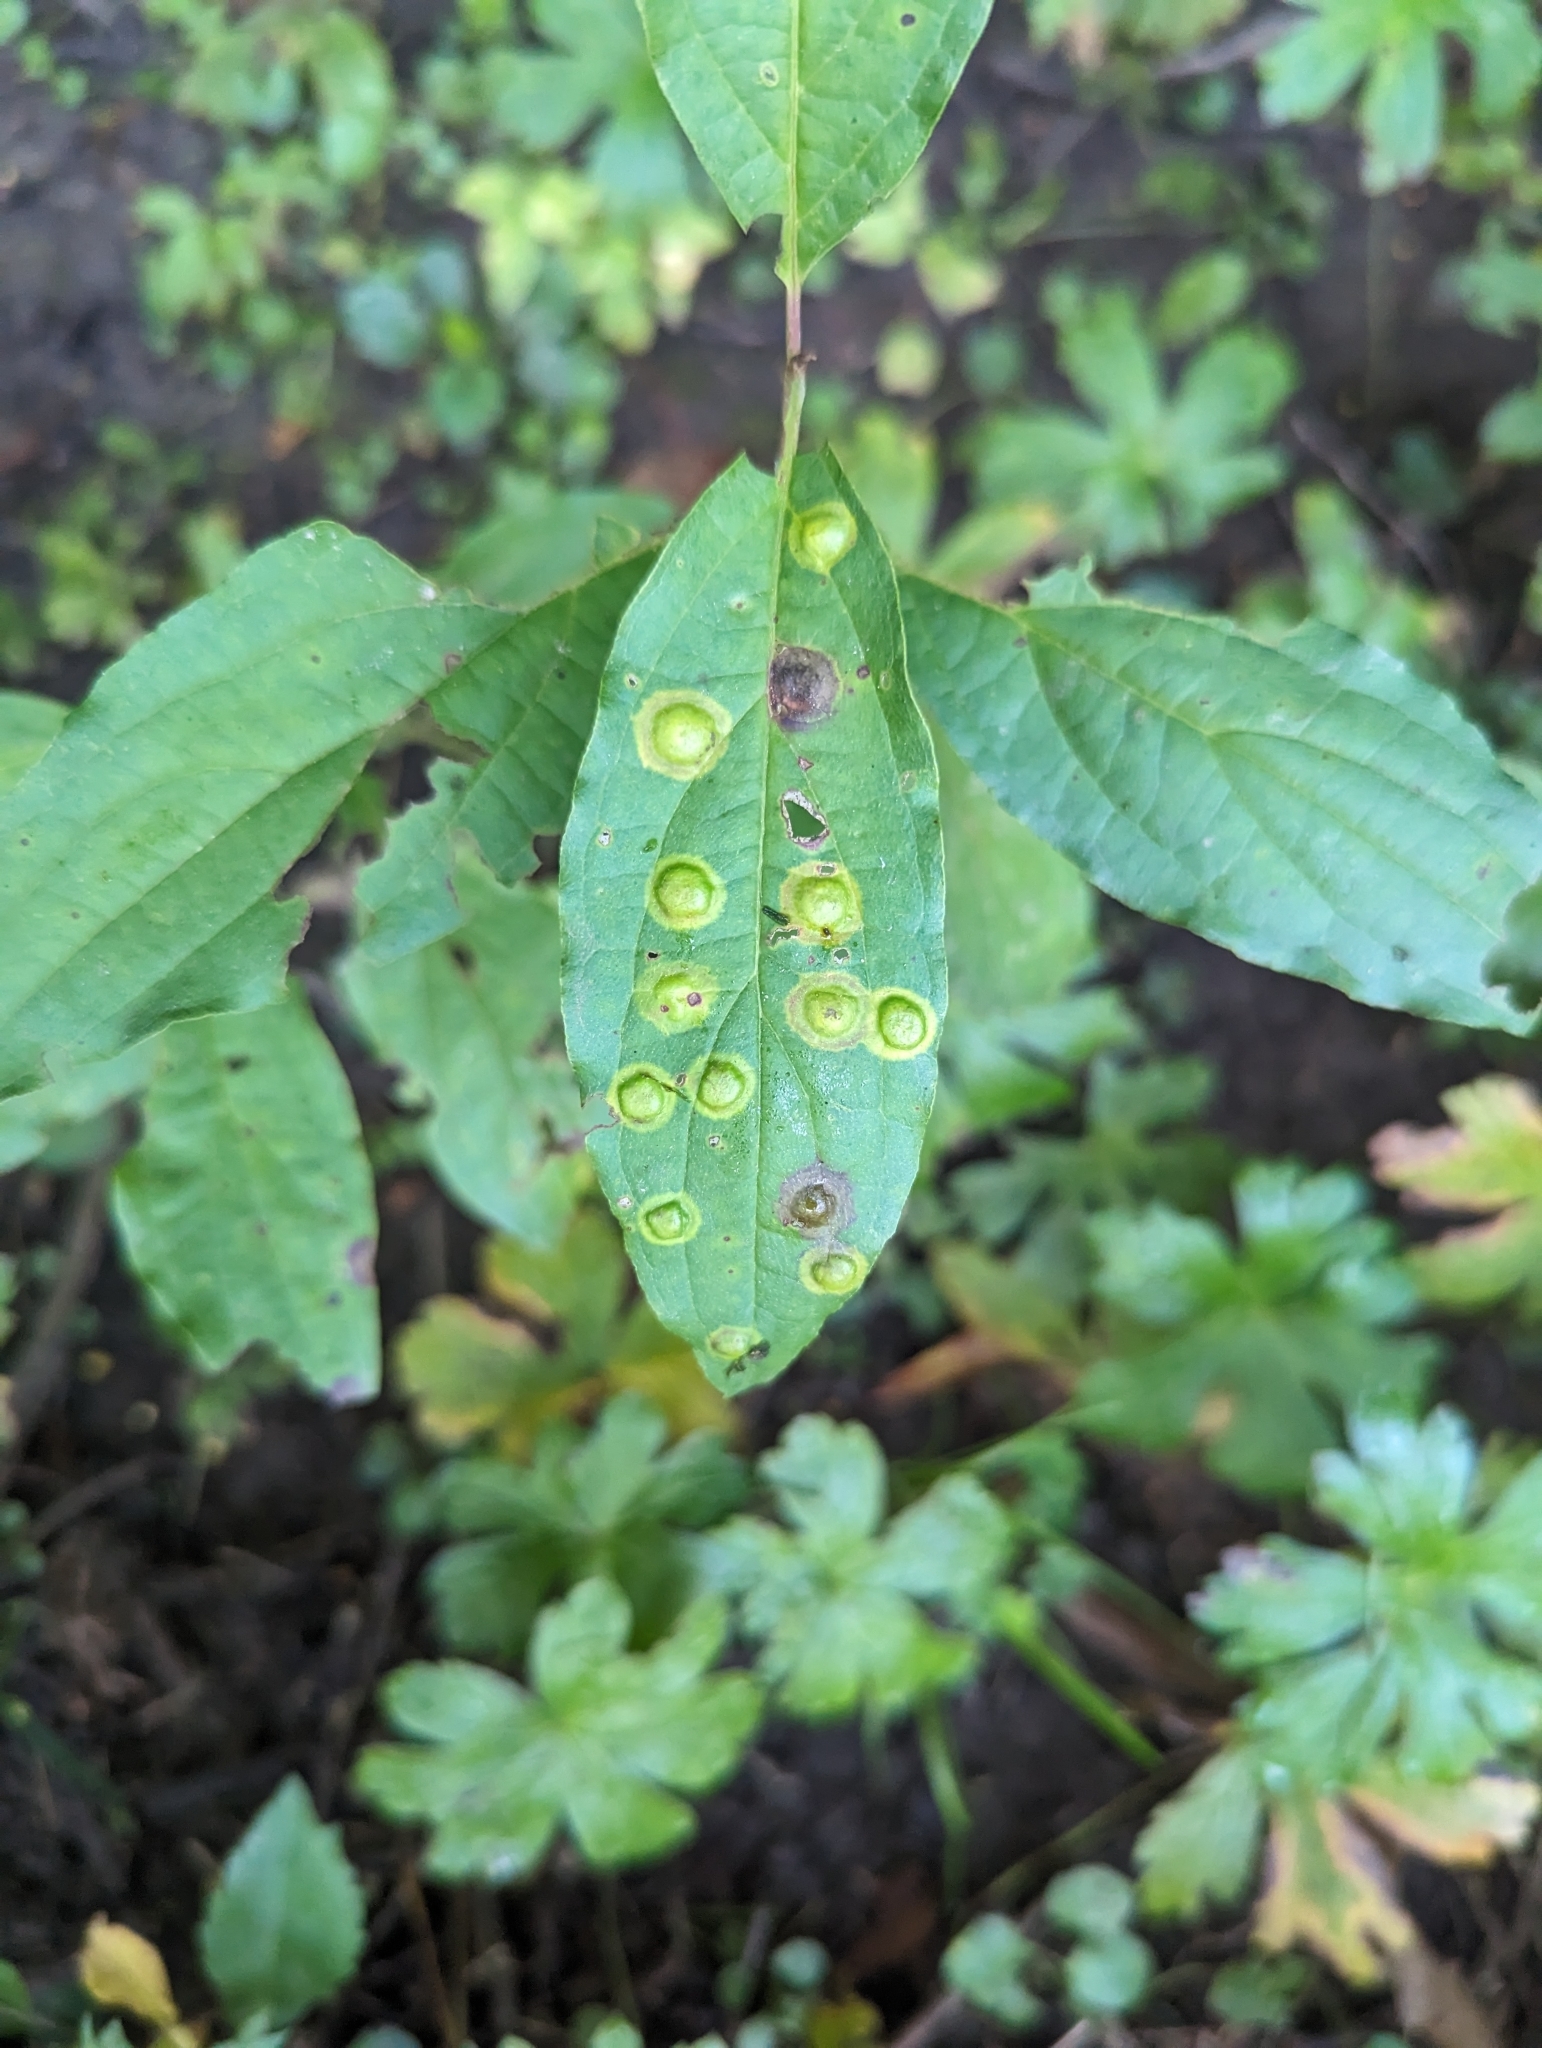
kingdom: Animalia
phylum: Arthropoda
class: Insecta
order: Diptera
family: Cecidomyiidae
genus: Parallelodiplosis
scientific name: Parallelodiplosis subtruncata
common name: Dogwood eyespot gall midge
